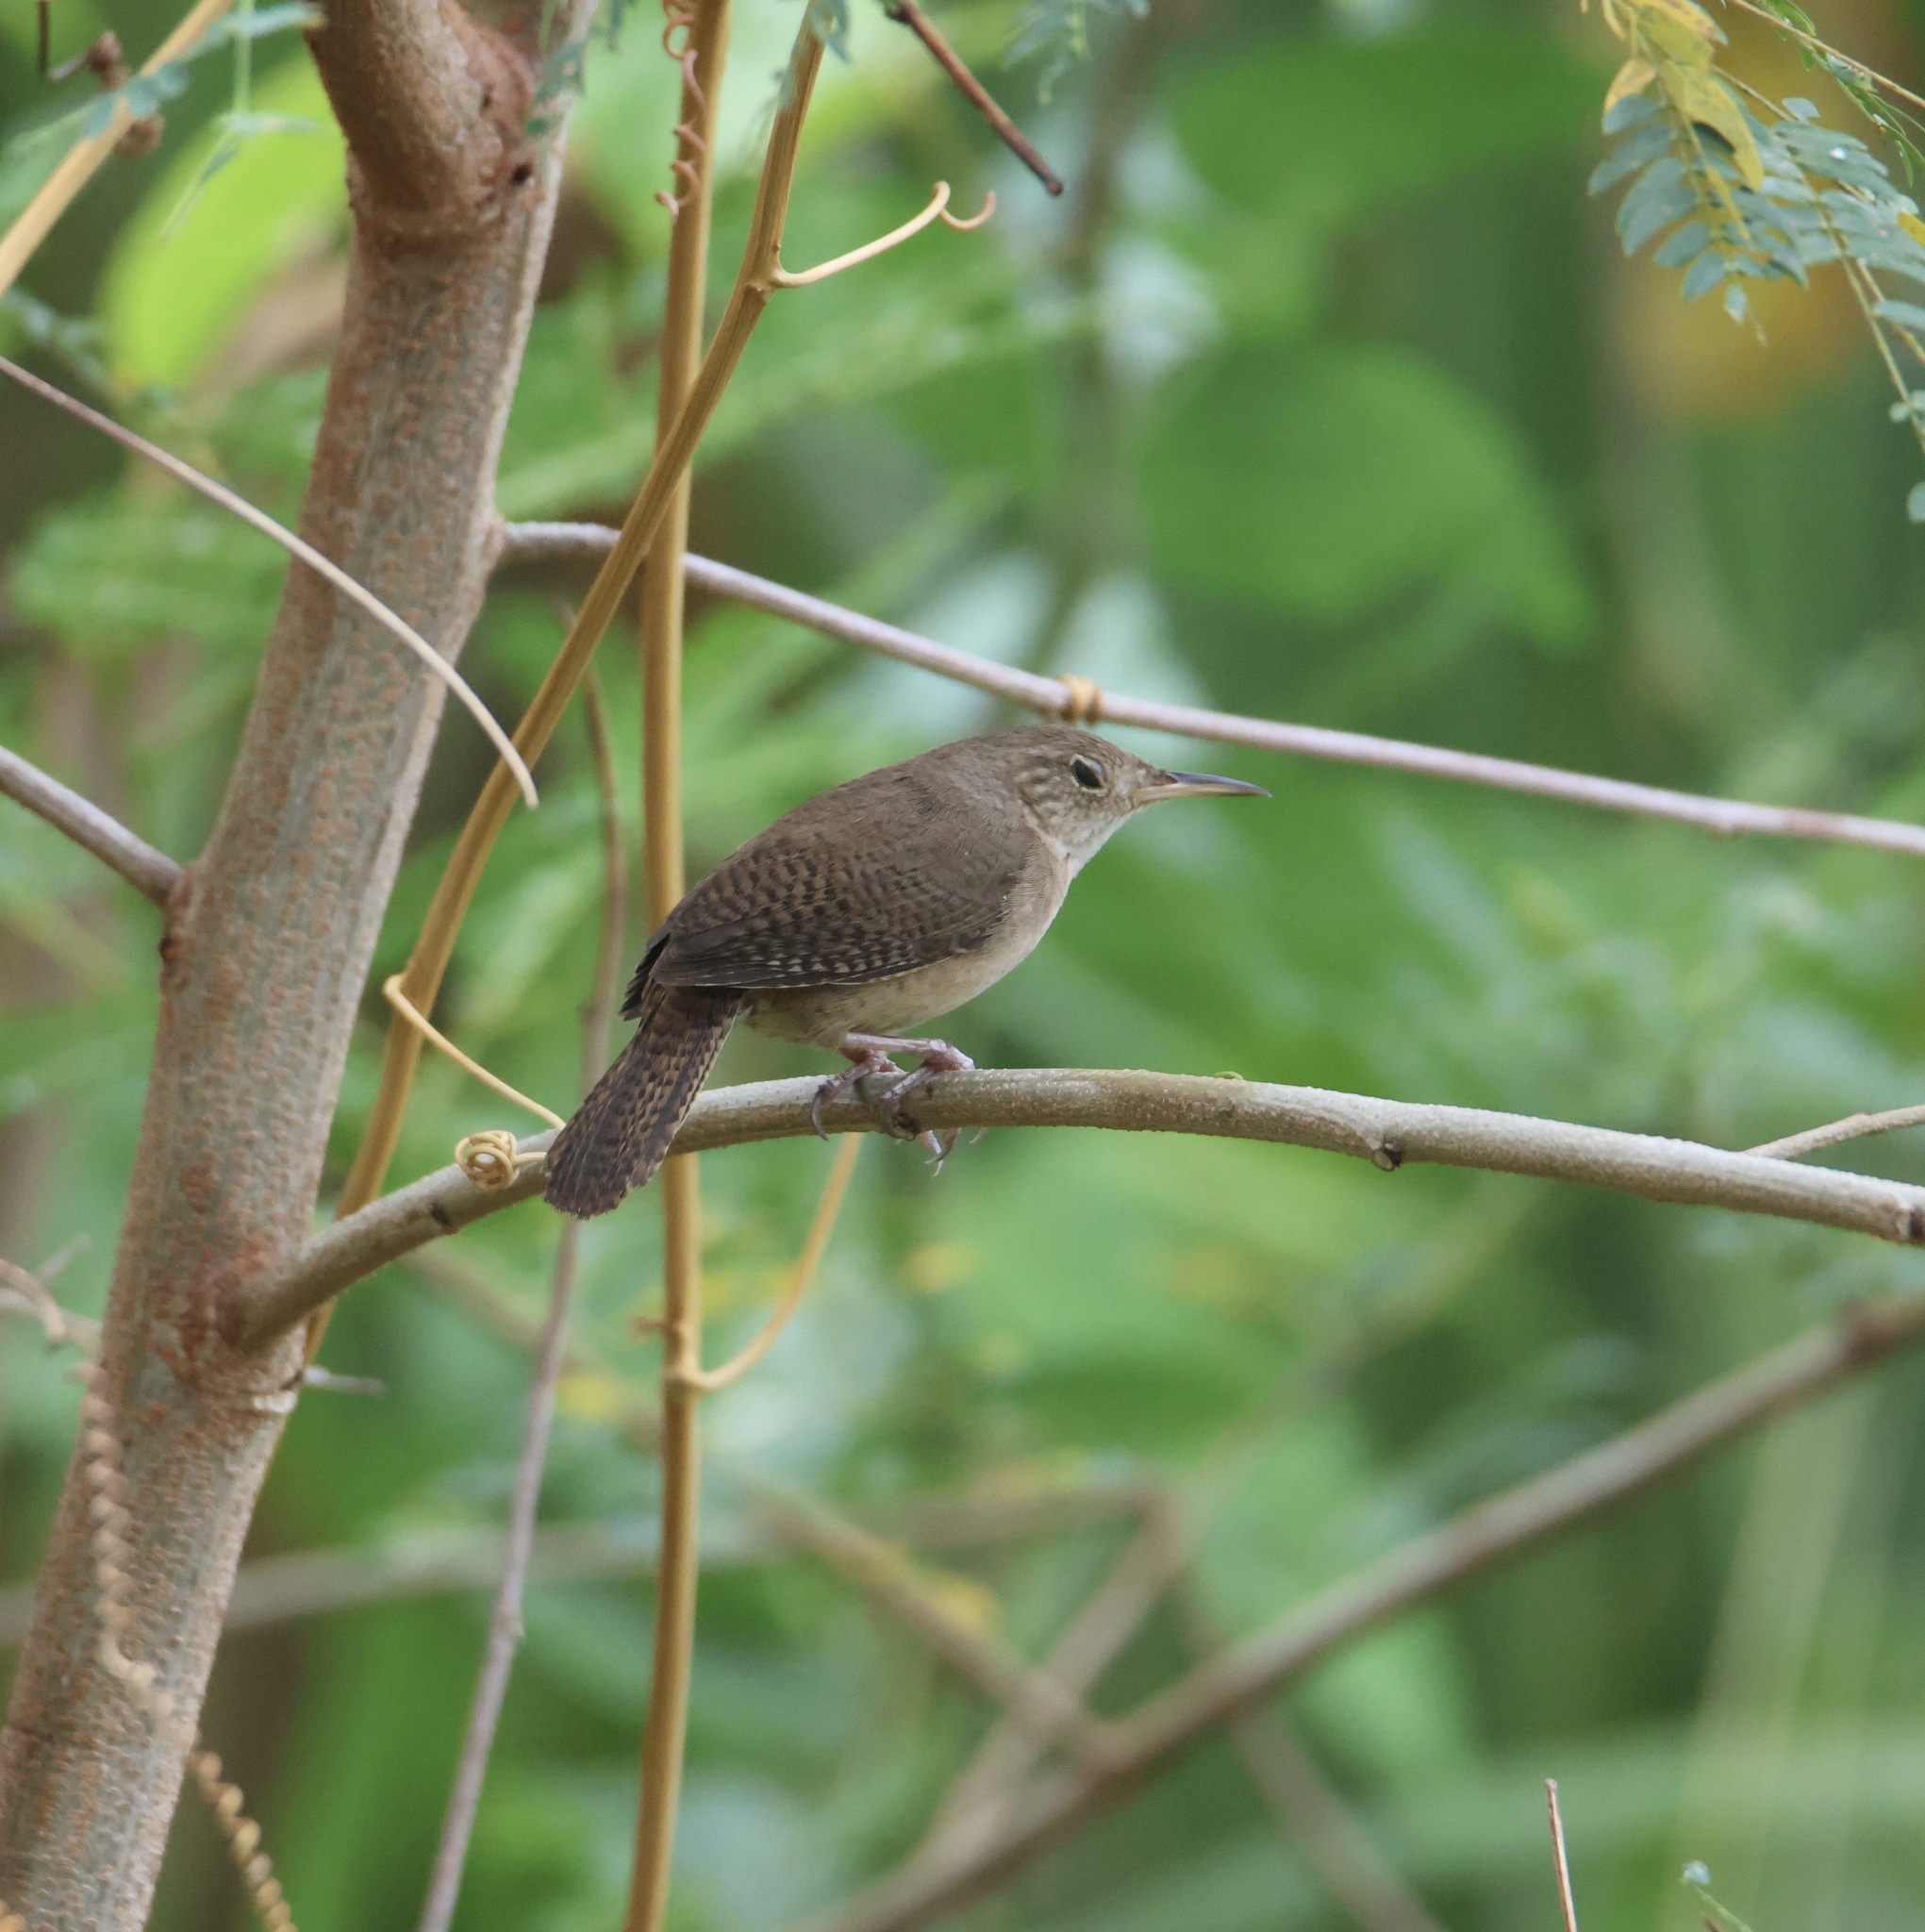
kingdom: Animalia
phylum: Chordata
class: Aves
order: Passeriformes
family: Troglodytidae
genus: Troglodytes
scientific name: Troglodytes aedon
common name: House wren
